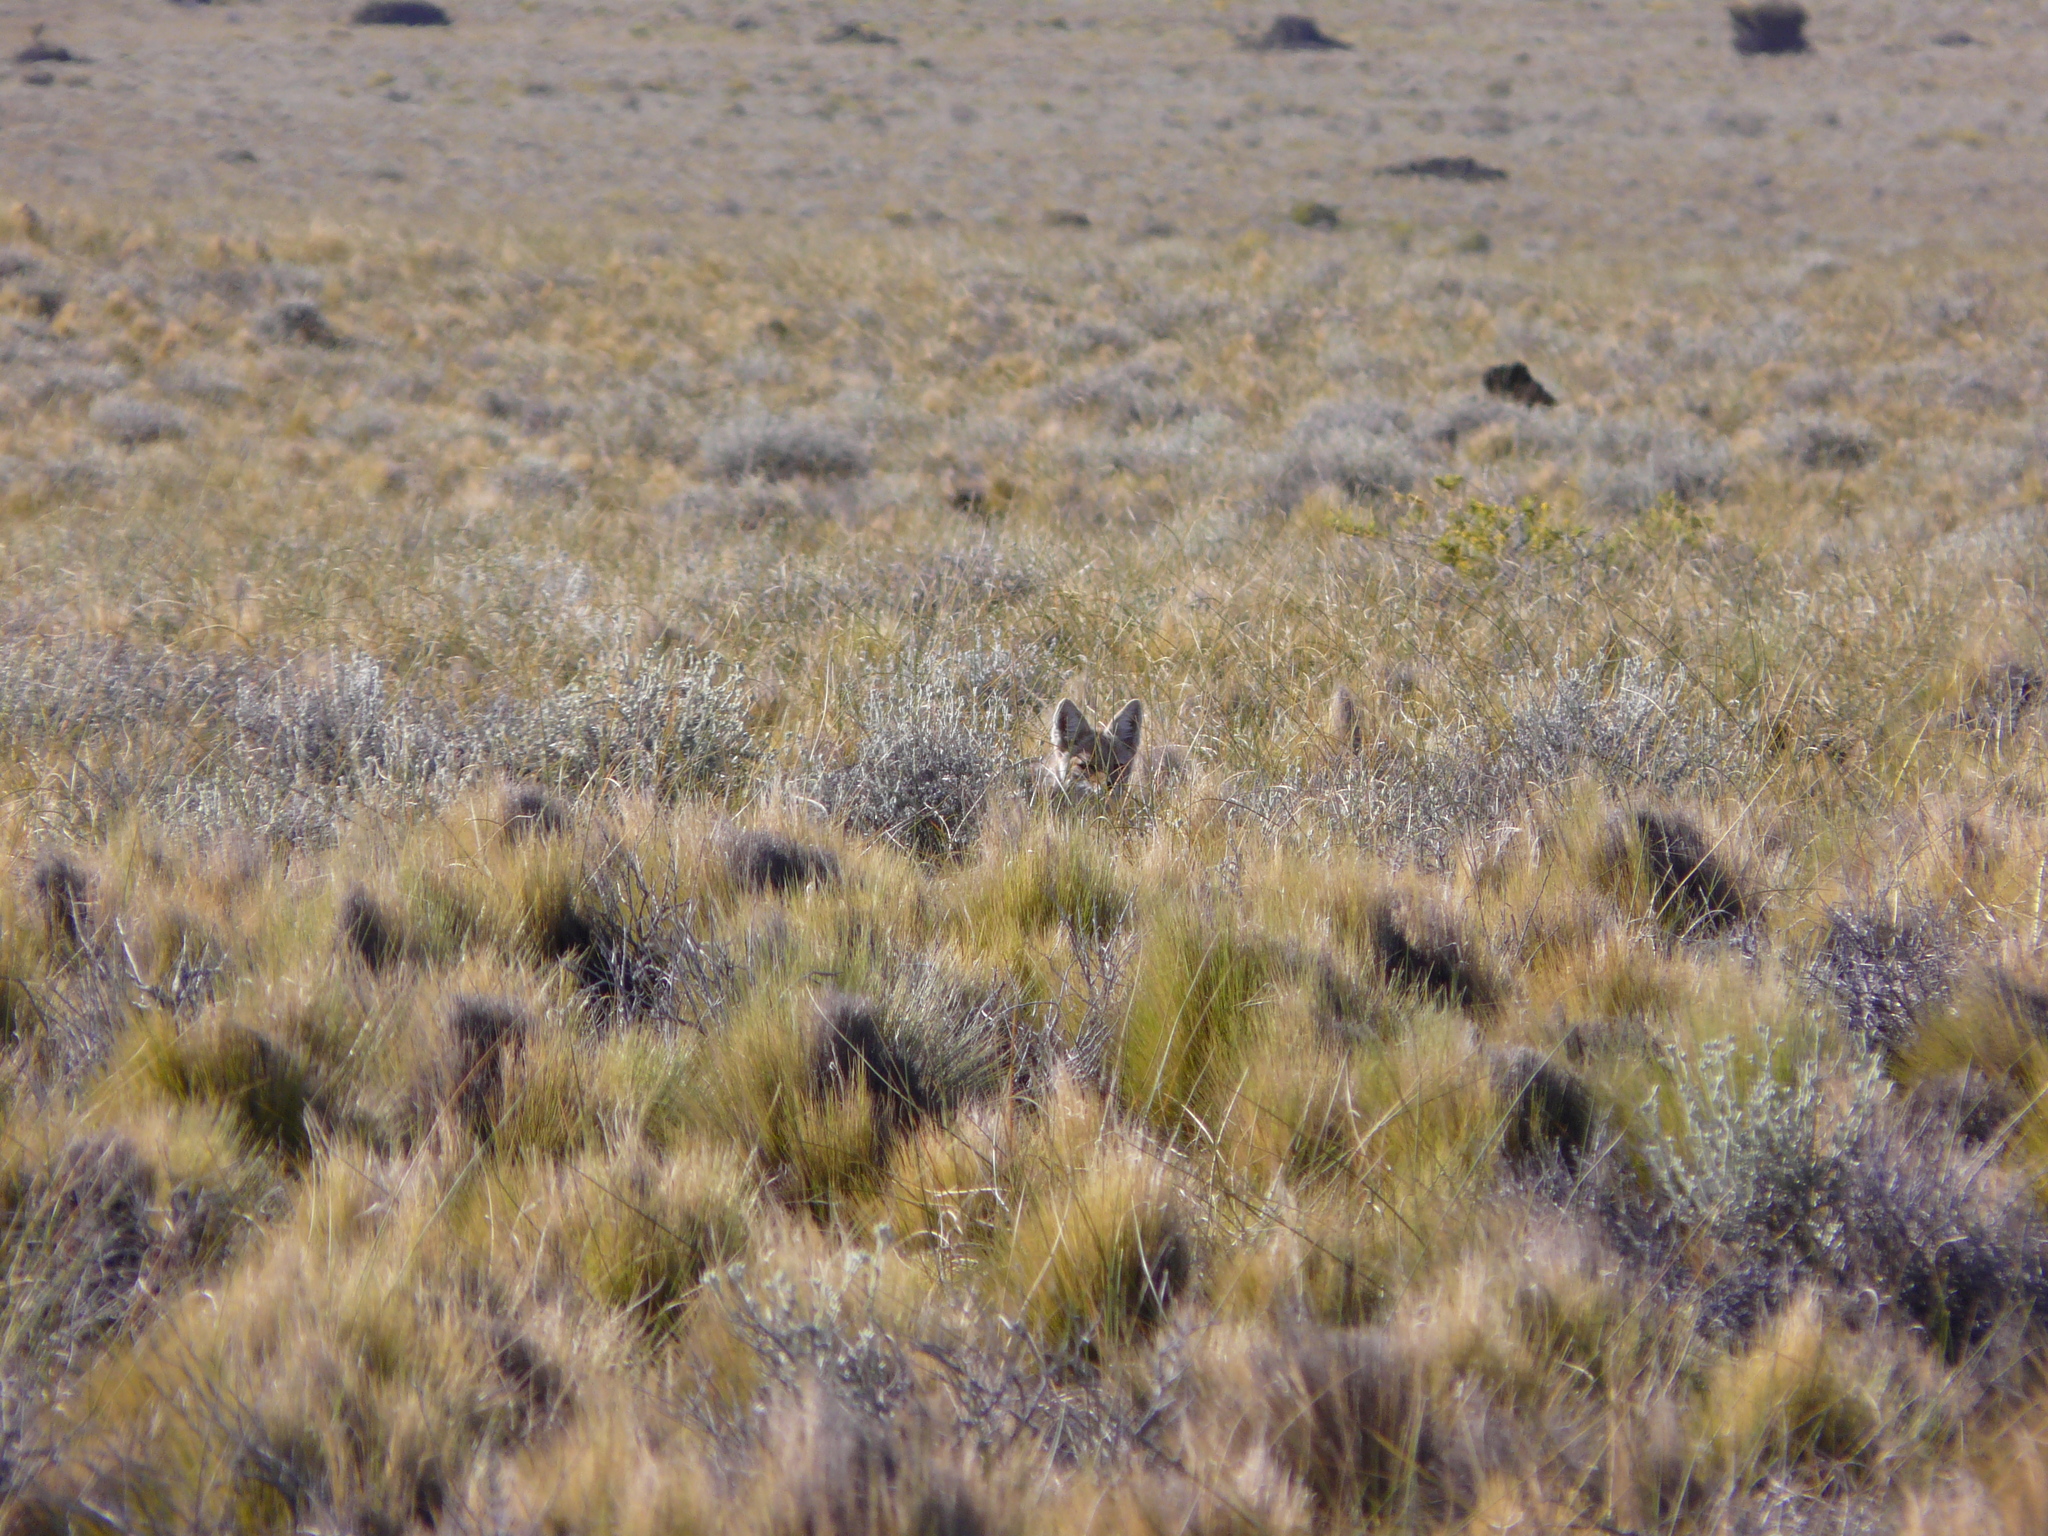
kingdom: Animalia
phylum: Chordata
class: Mammalia
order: Carnivora
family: Canidae
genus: Lycalopex
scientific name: Lycalopex gymnocercus
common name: Pampas fox
